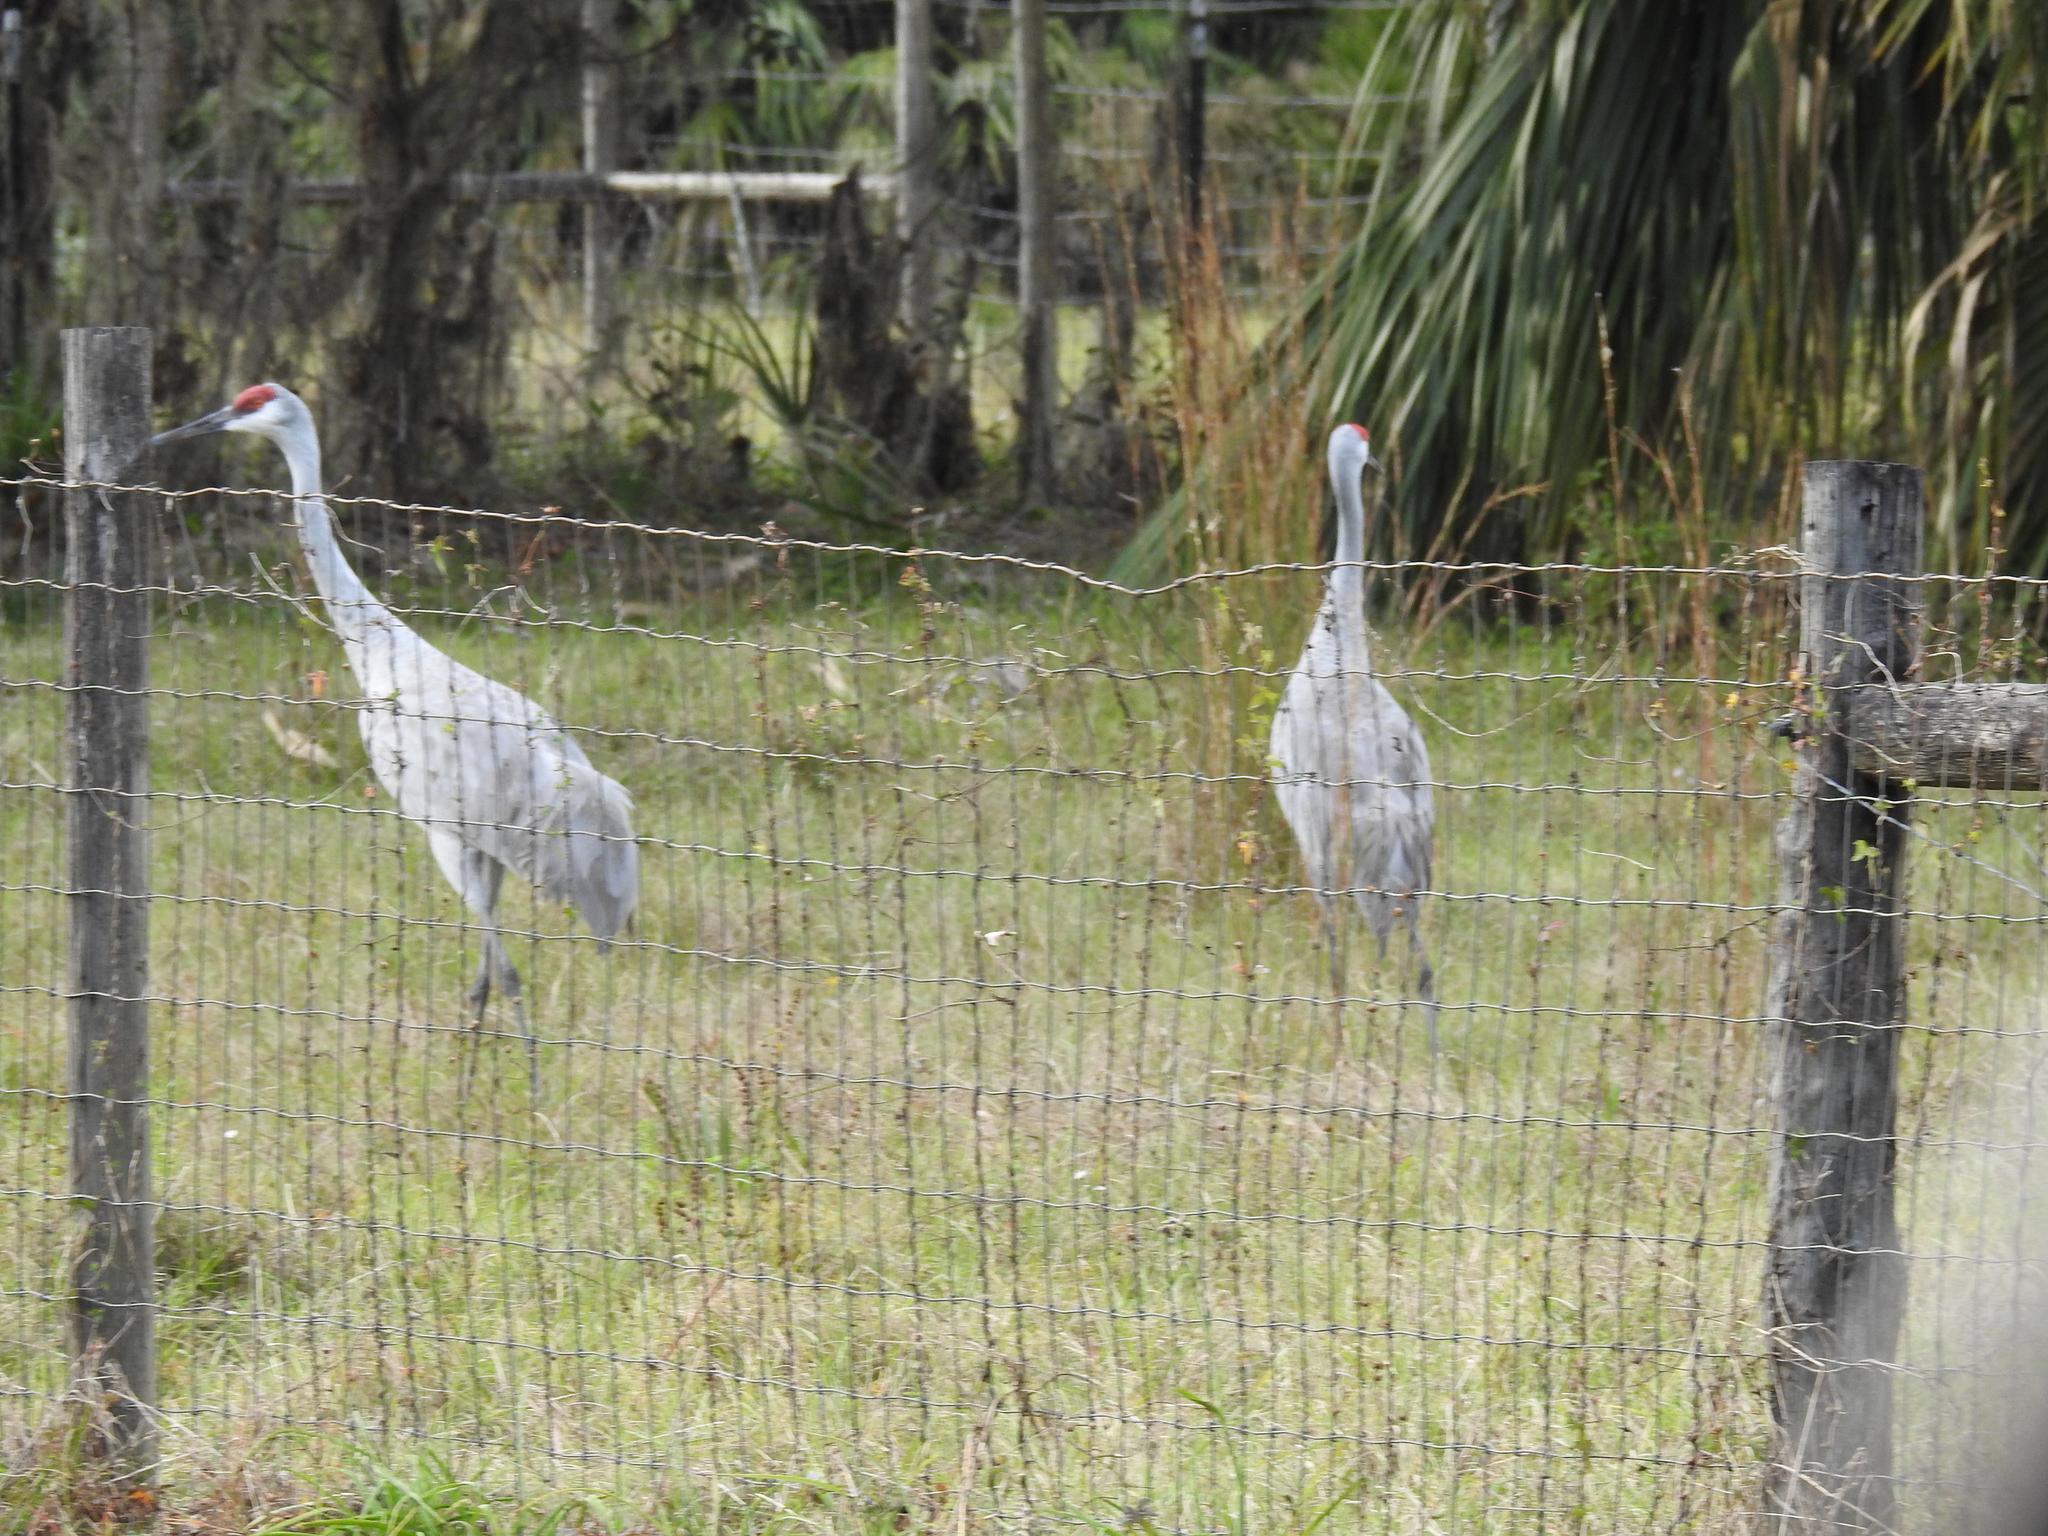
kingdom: Animalia
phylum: Chordata
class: Aves
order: Gruiformes
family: Gruidae
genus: Grus
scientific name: Grus canadensis
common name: Sandhill crane
